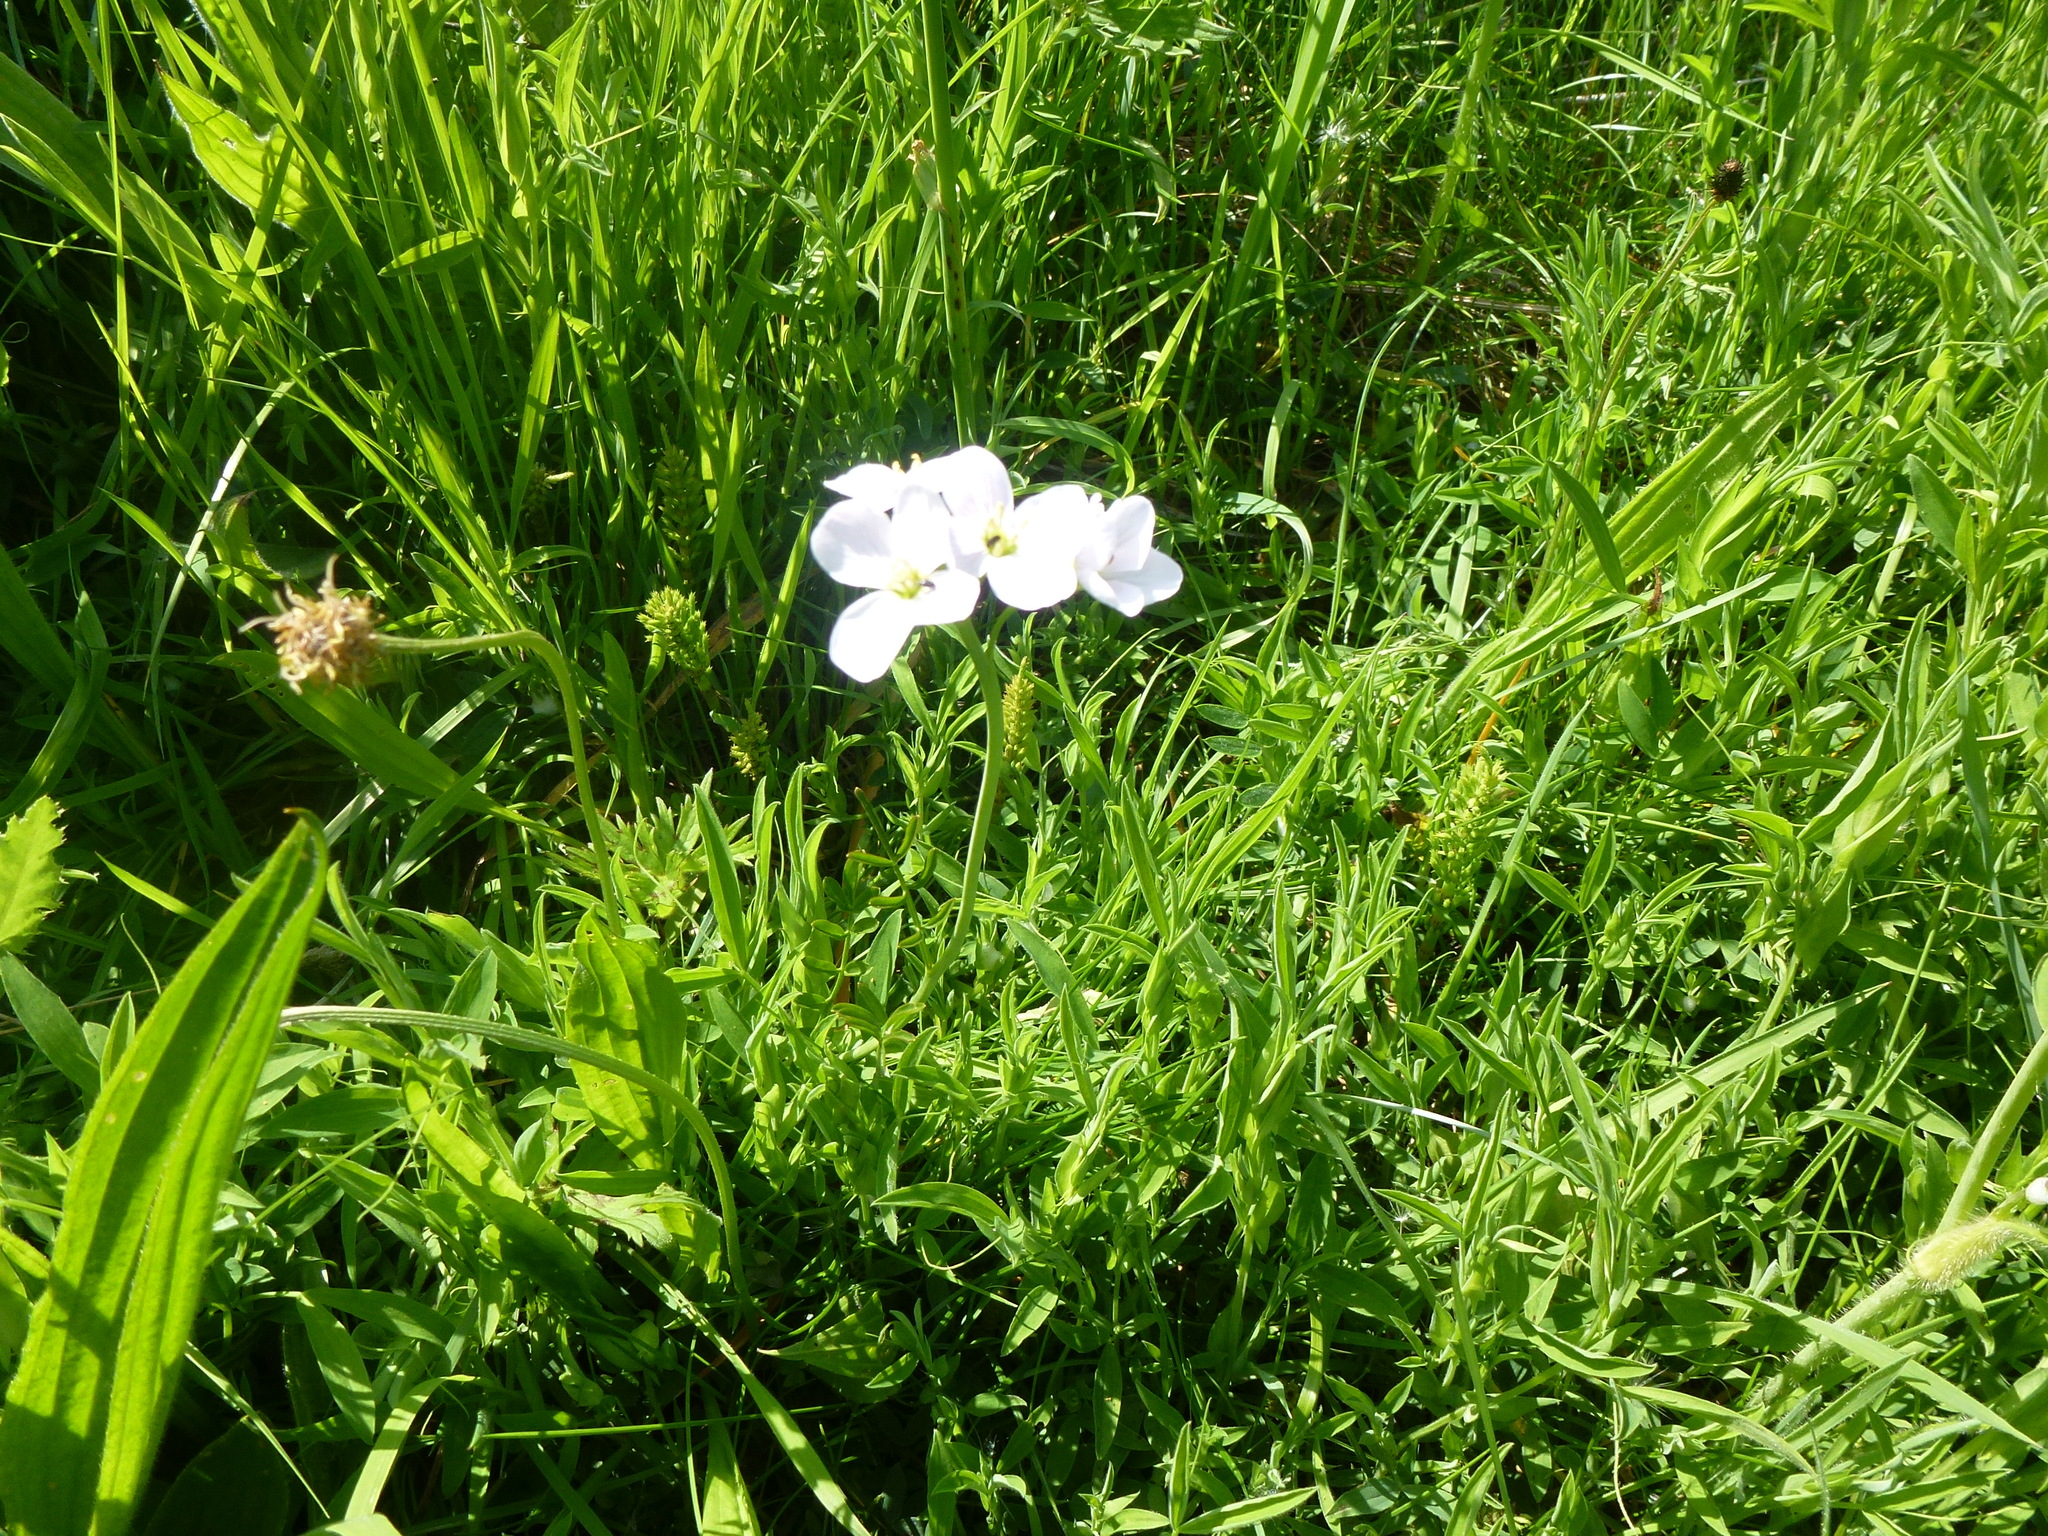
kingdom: Plantae
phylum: Tracheophyta
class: Magnoliopsida
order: Brassicales
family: Brassicaceae
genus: Cardamine
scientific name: Cardamine pratensis
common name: Cuckoo flower
